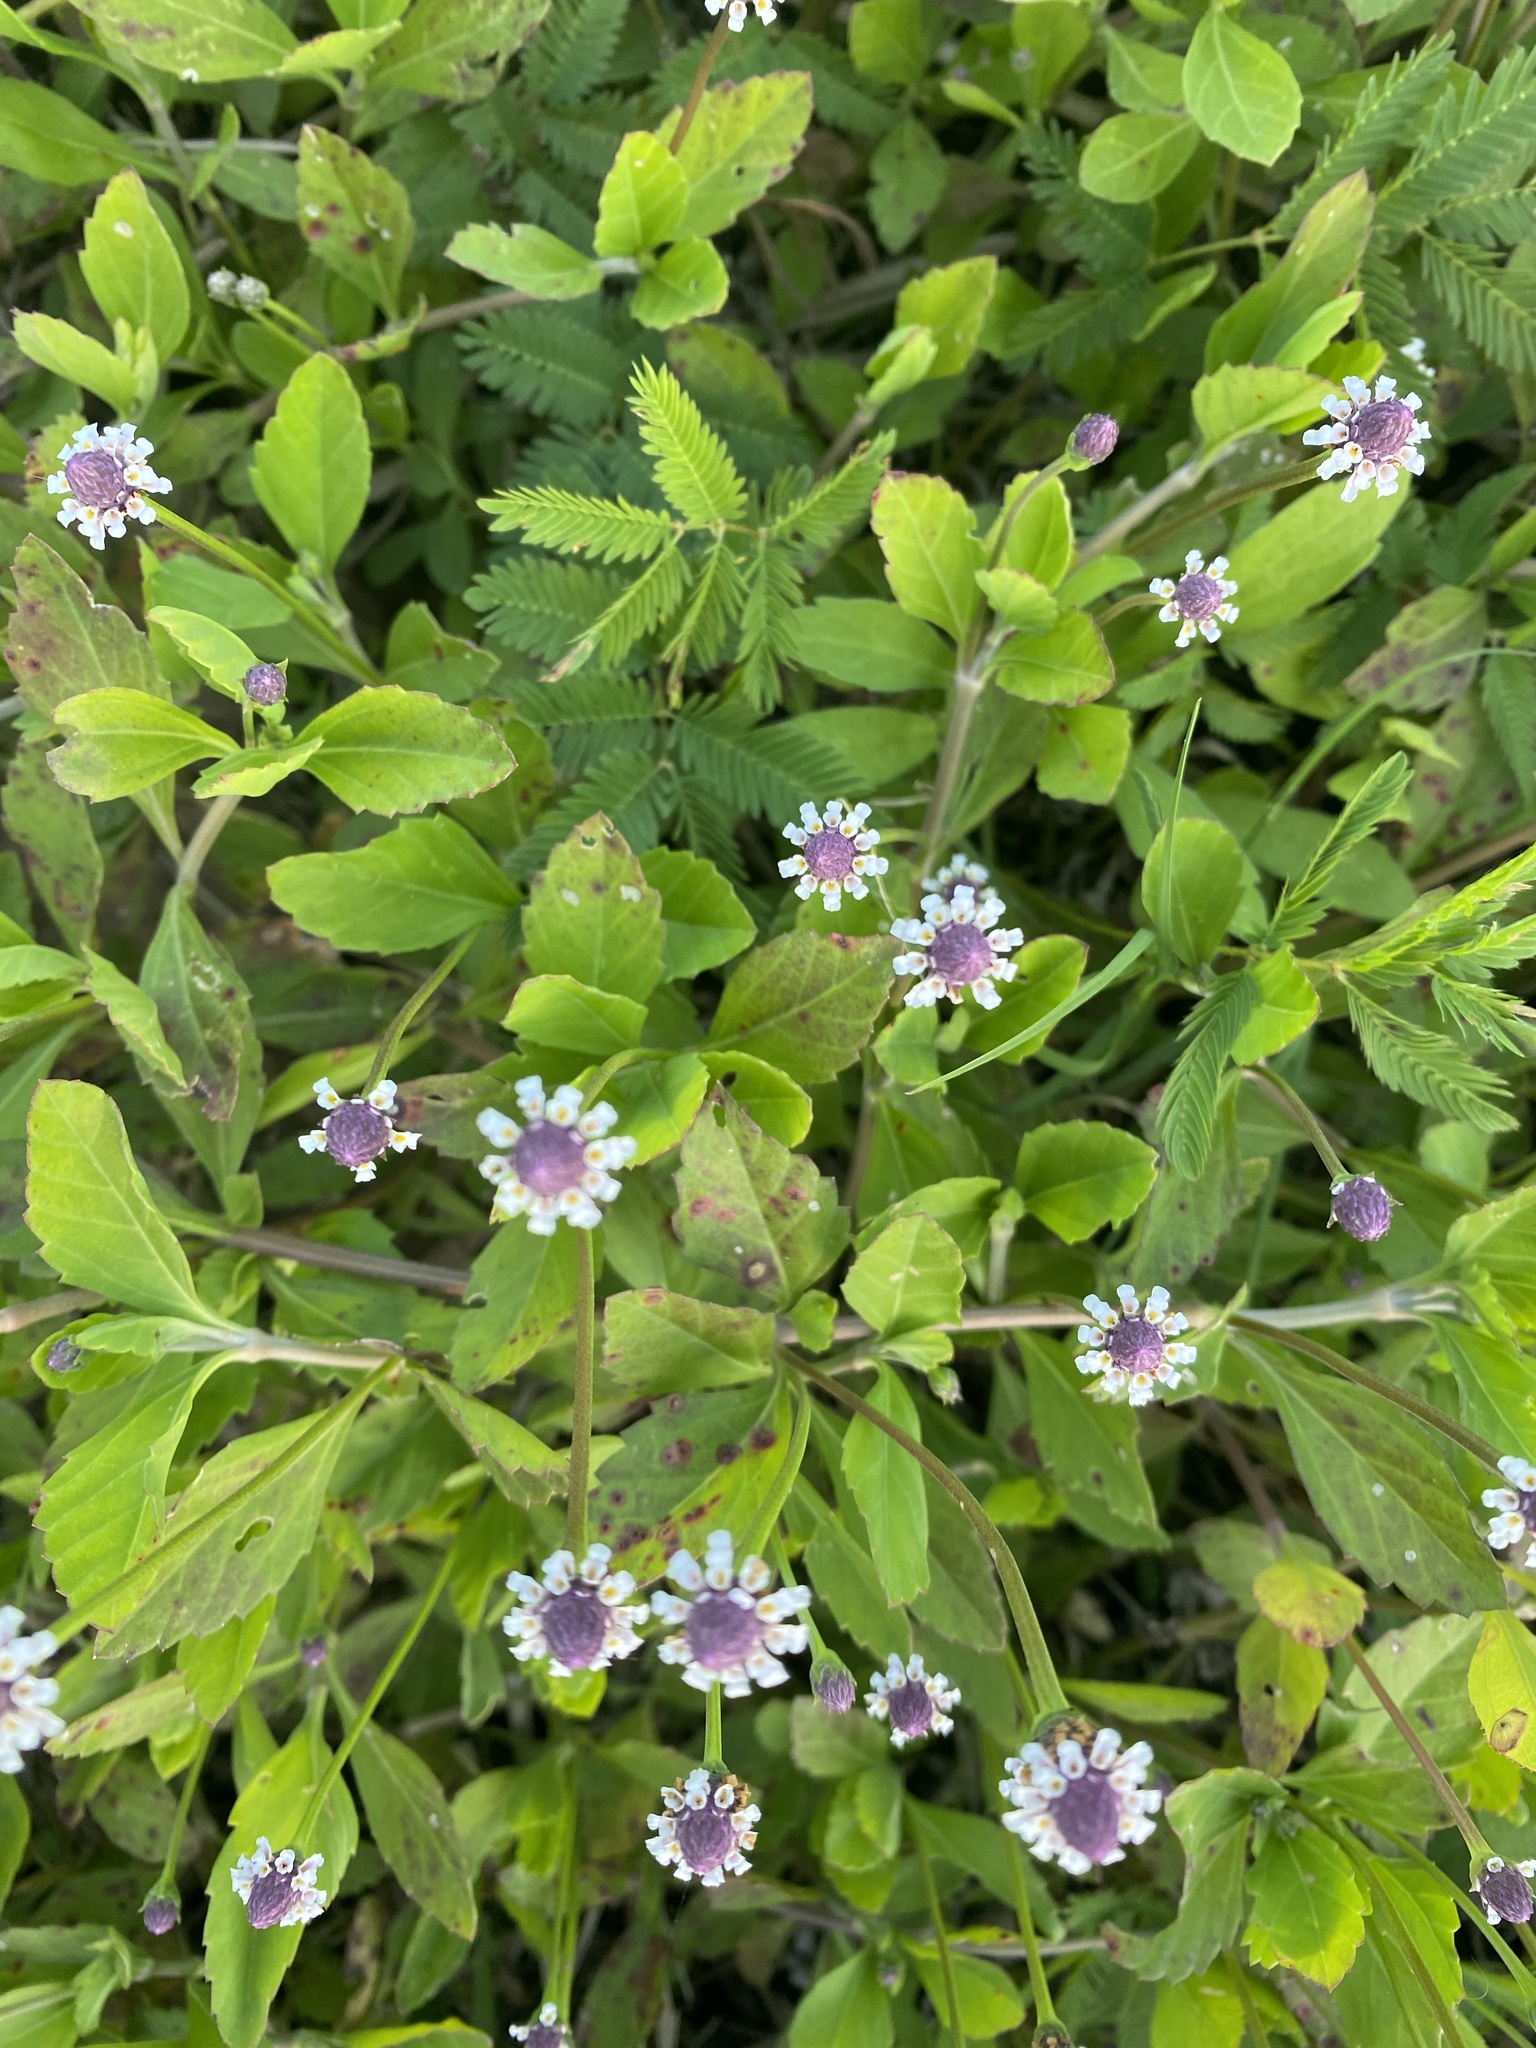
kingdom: Plantae
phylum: Tracheophyta
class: Magnoliopsida
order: Lamiales
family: Verbenaceae
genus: Phyla
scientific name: Phyla nodiflora
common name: Frogfruit
